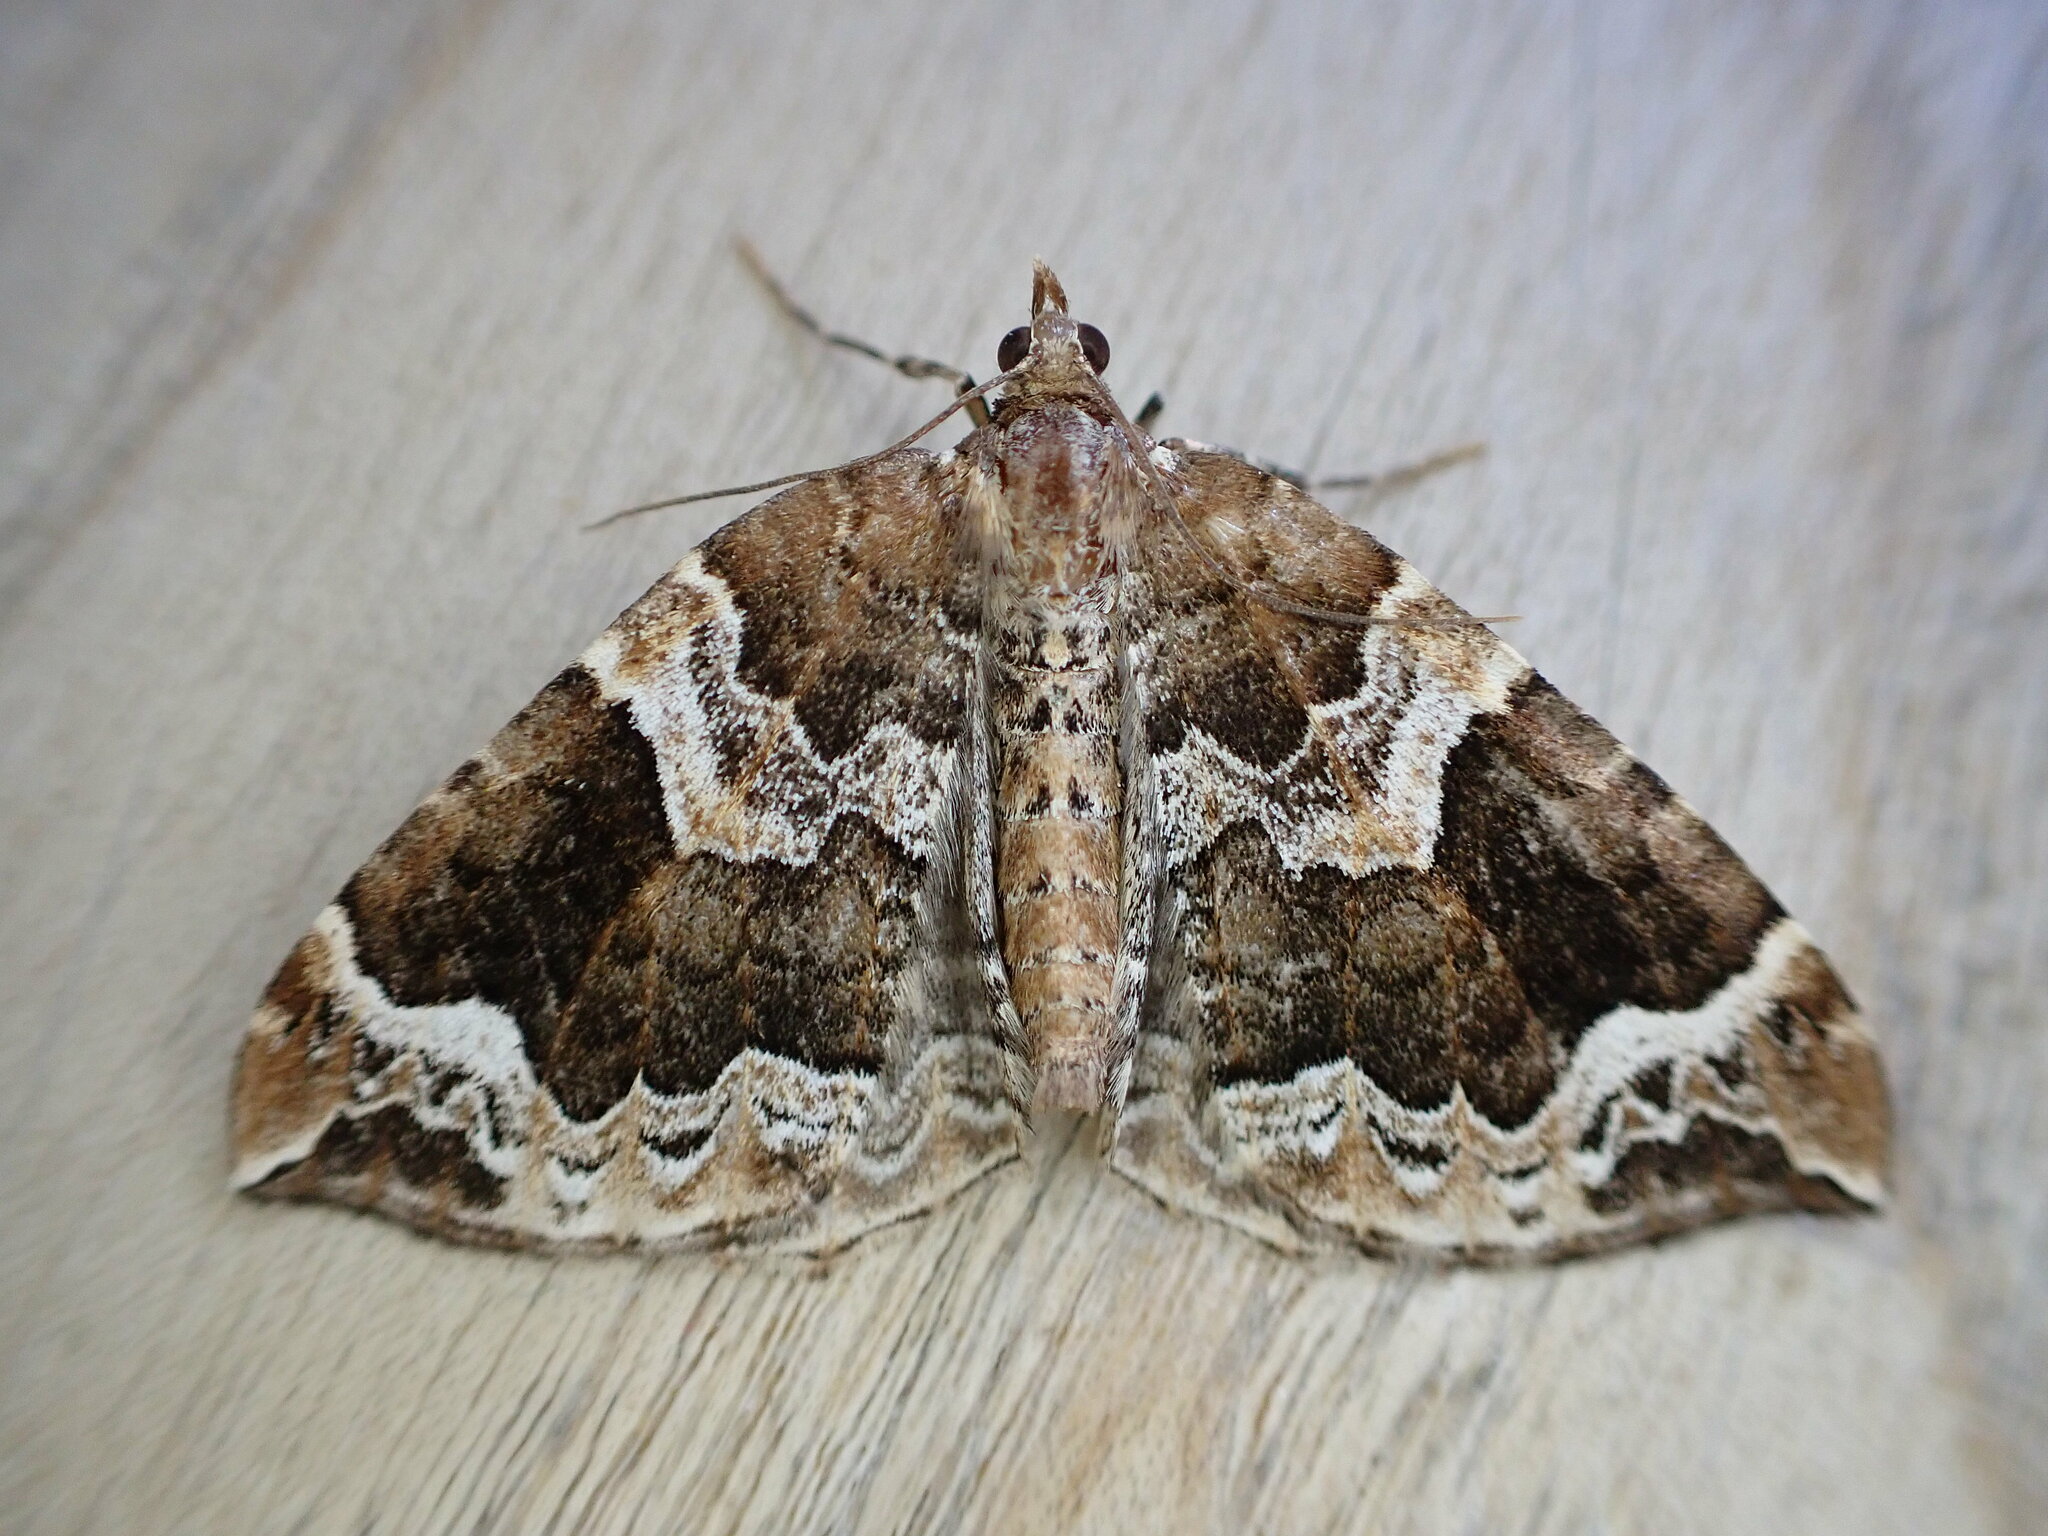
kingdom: Animalia
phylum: Arthropoda
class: Insecta
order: Lepidoptera
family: Geometridae
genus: Eulithis
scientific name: Eulithis prunata
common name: Phoenix
